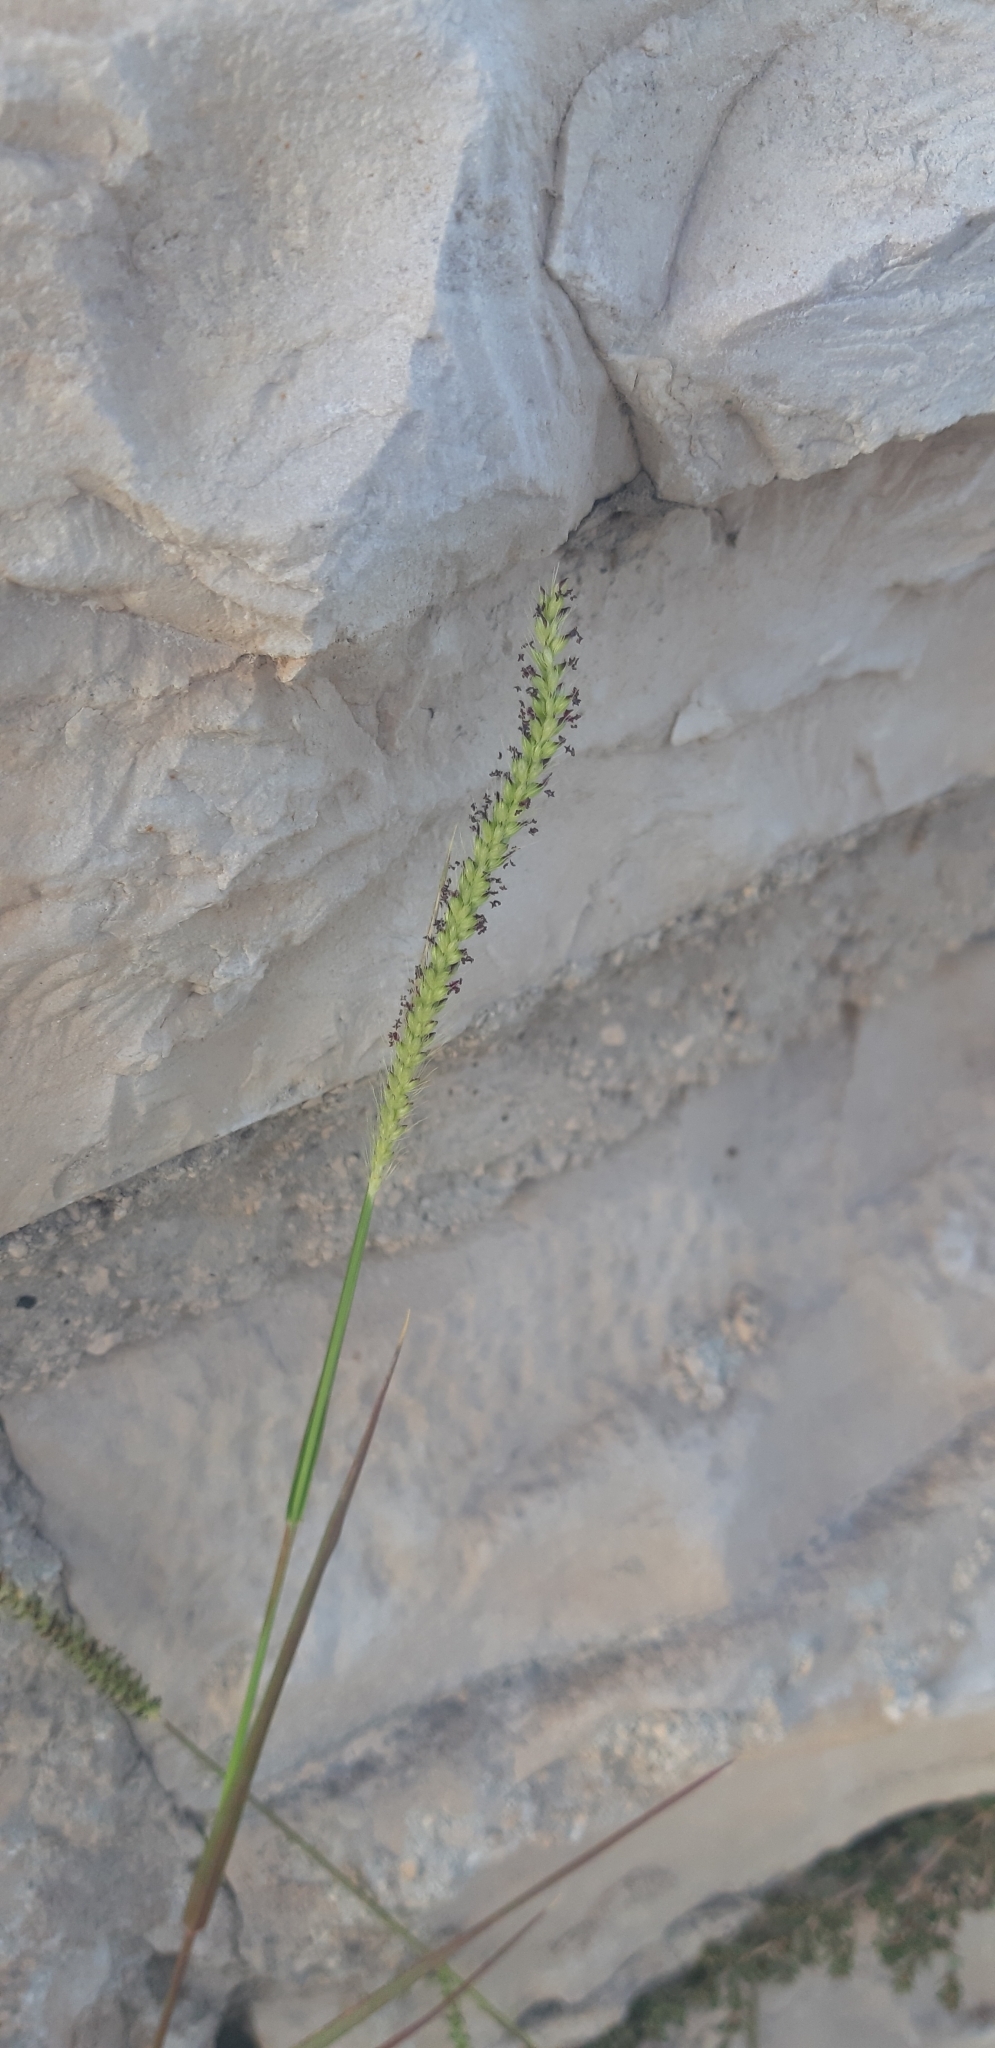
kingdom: Plantae
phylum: Tracheophyta
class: Liliopsida
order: Poales
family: Poaceae
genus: Setaria
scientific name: Setaria parviflora
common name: Knotroot bristle-grass
